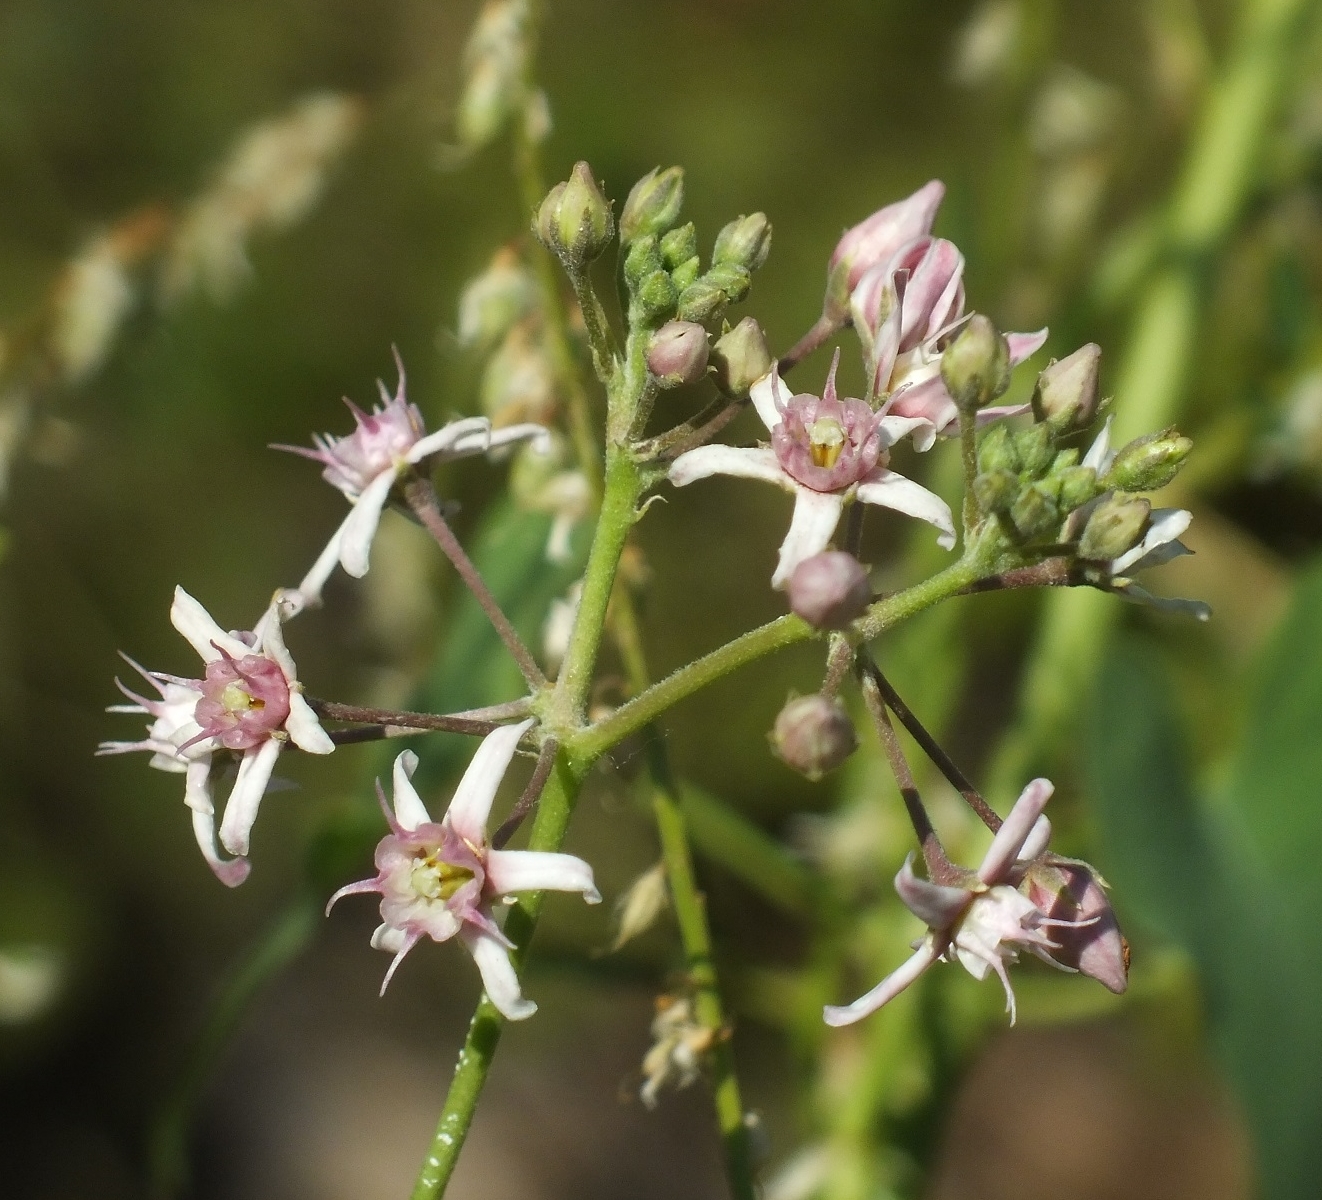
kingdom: Plantae
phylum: Tracheophyta
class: Magnoliopsida
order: Gentianales
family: Apocynaceae
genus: Cynanchum
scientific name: Cynanchum acutum
